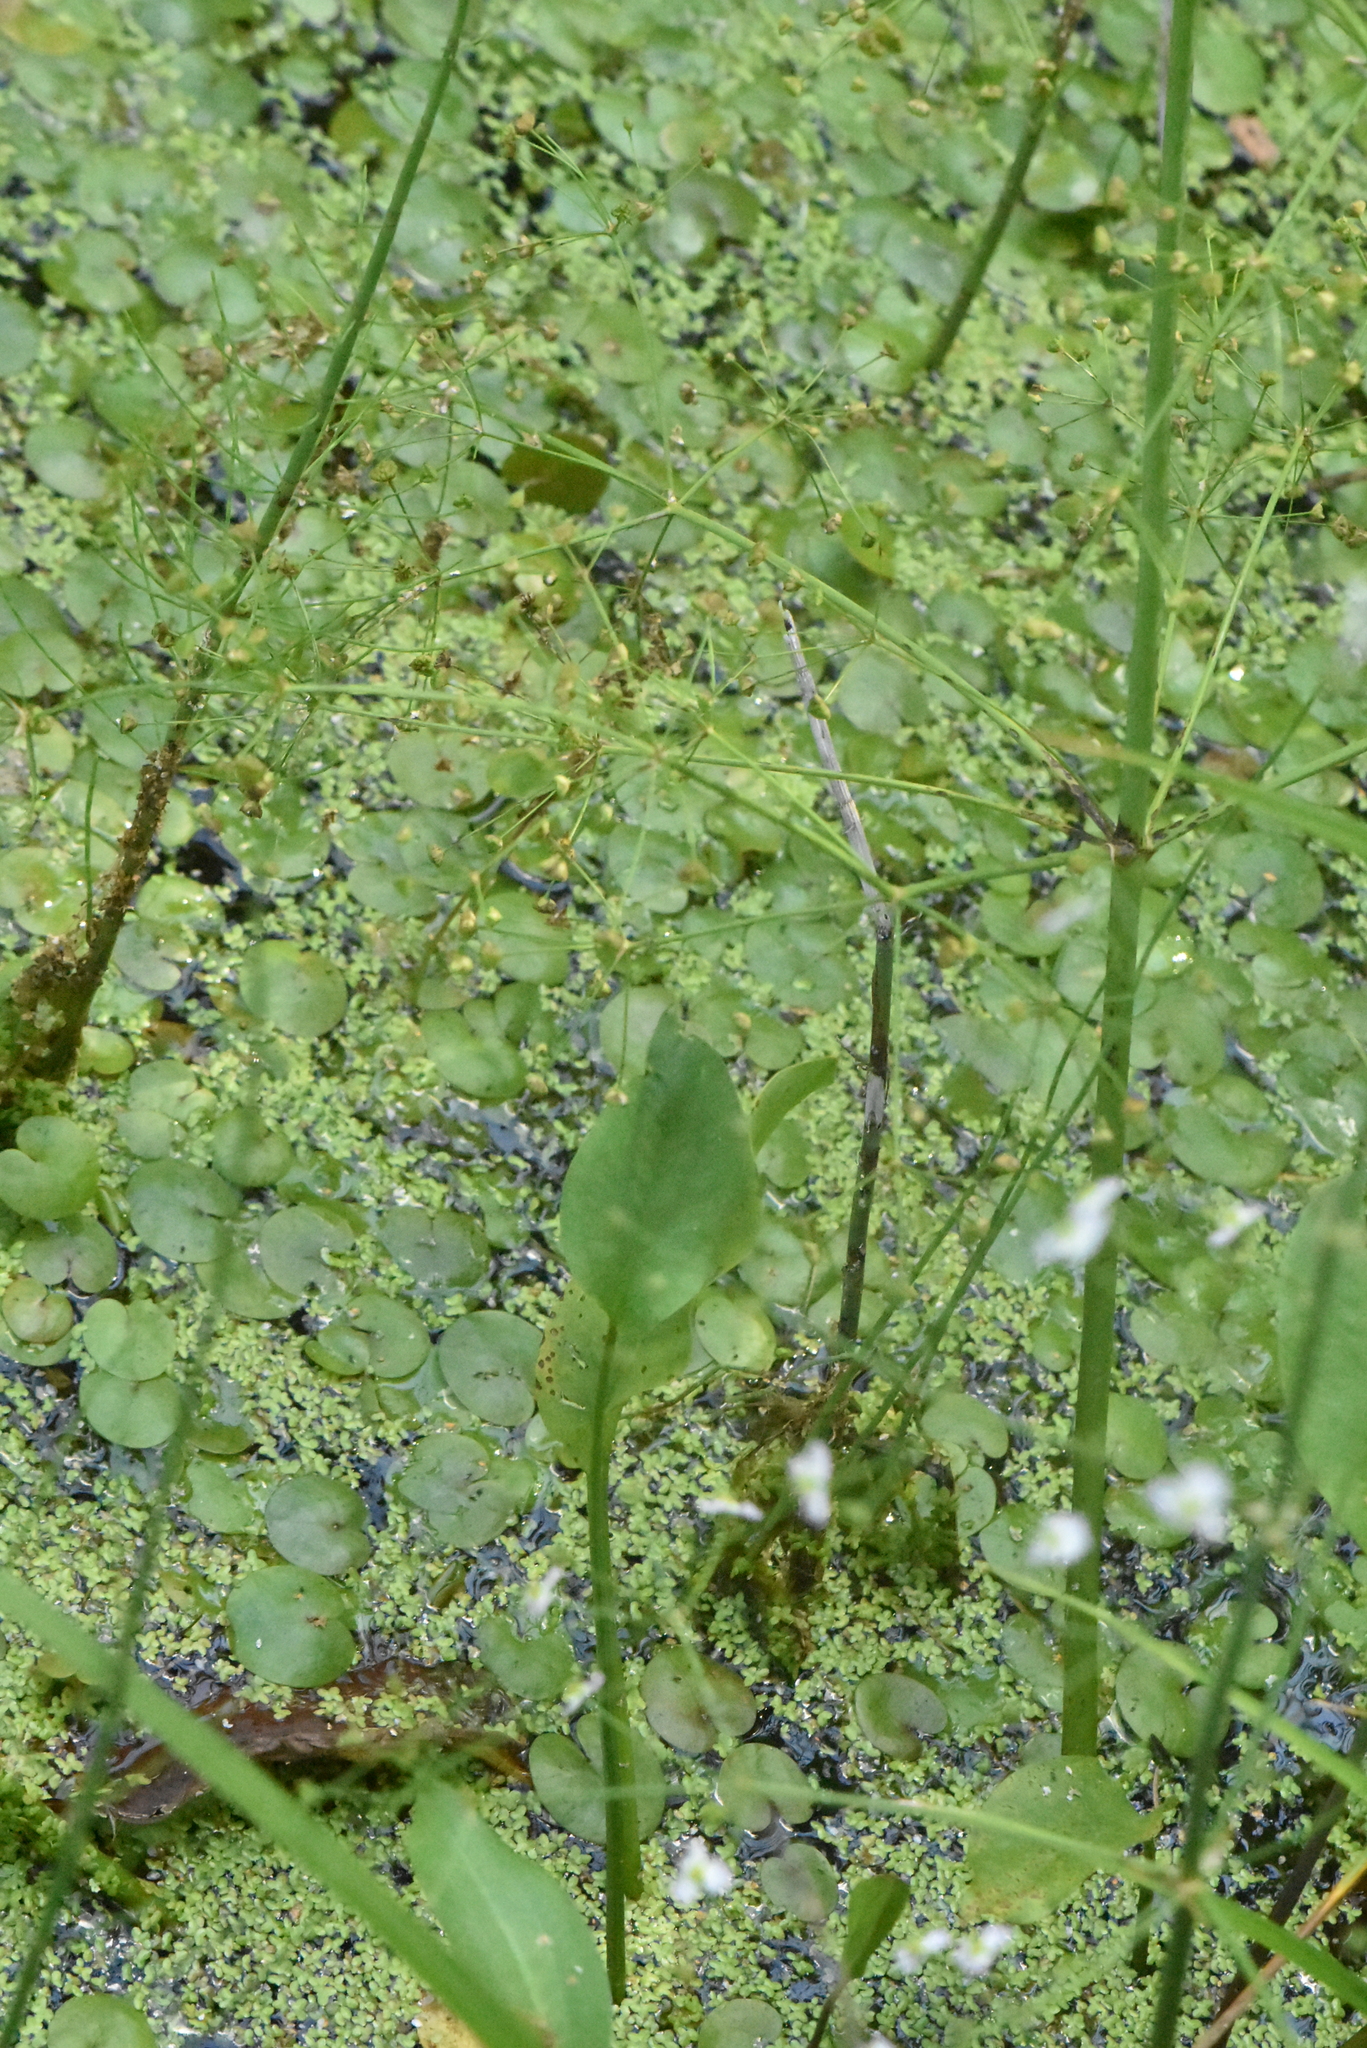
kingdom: Plantae
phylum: Tracheophyta
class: Liliopsida
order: Alismatales
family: Alismataceae
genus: Alisma
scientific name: Alisma plantago-aquatica
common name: Water-plantain
